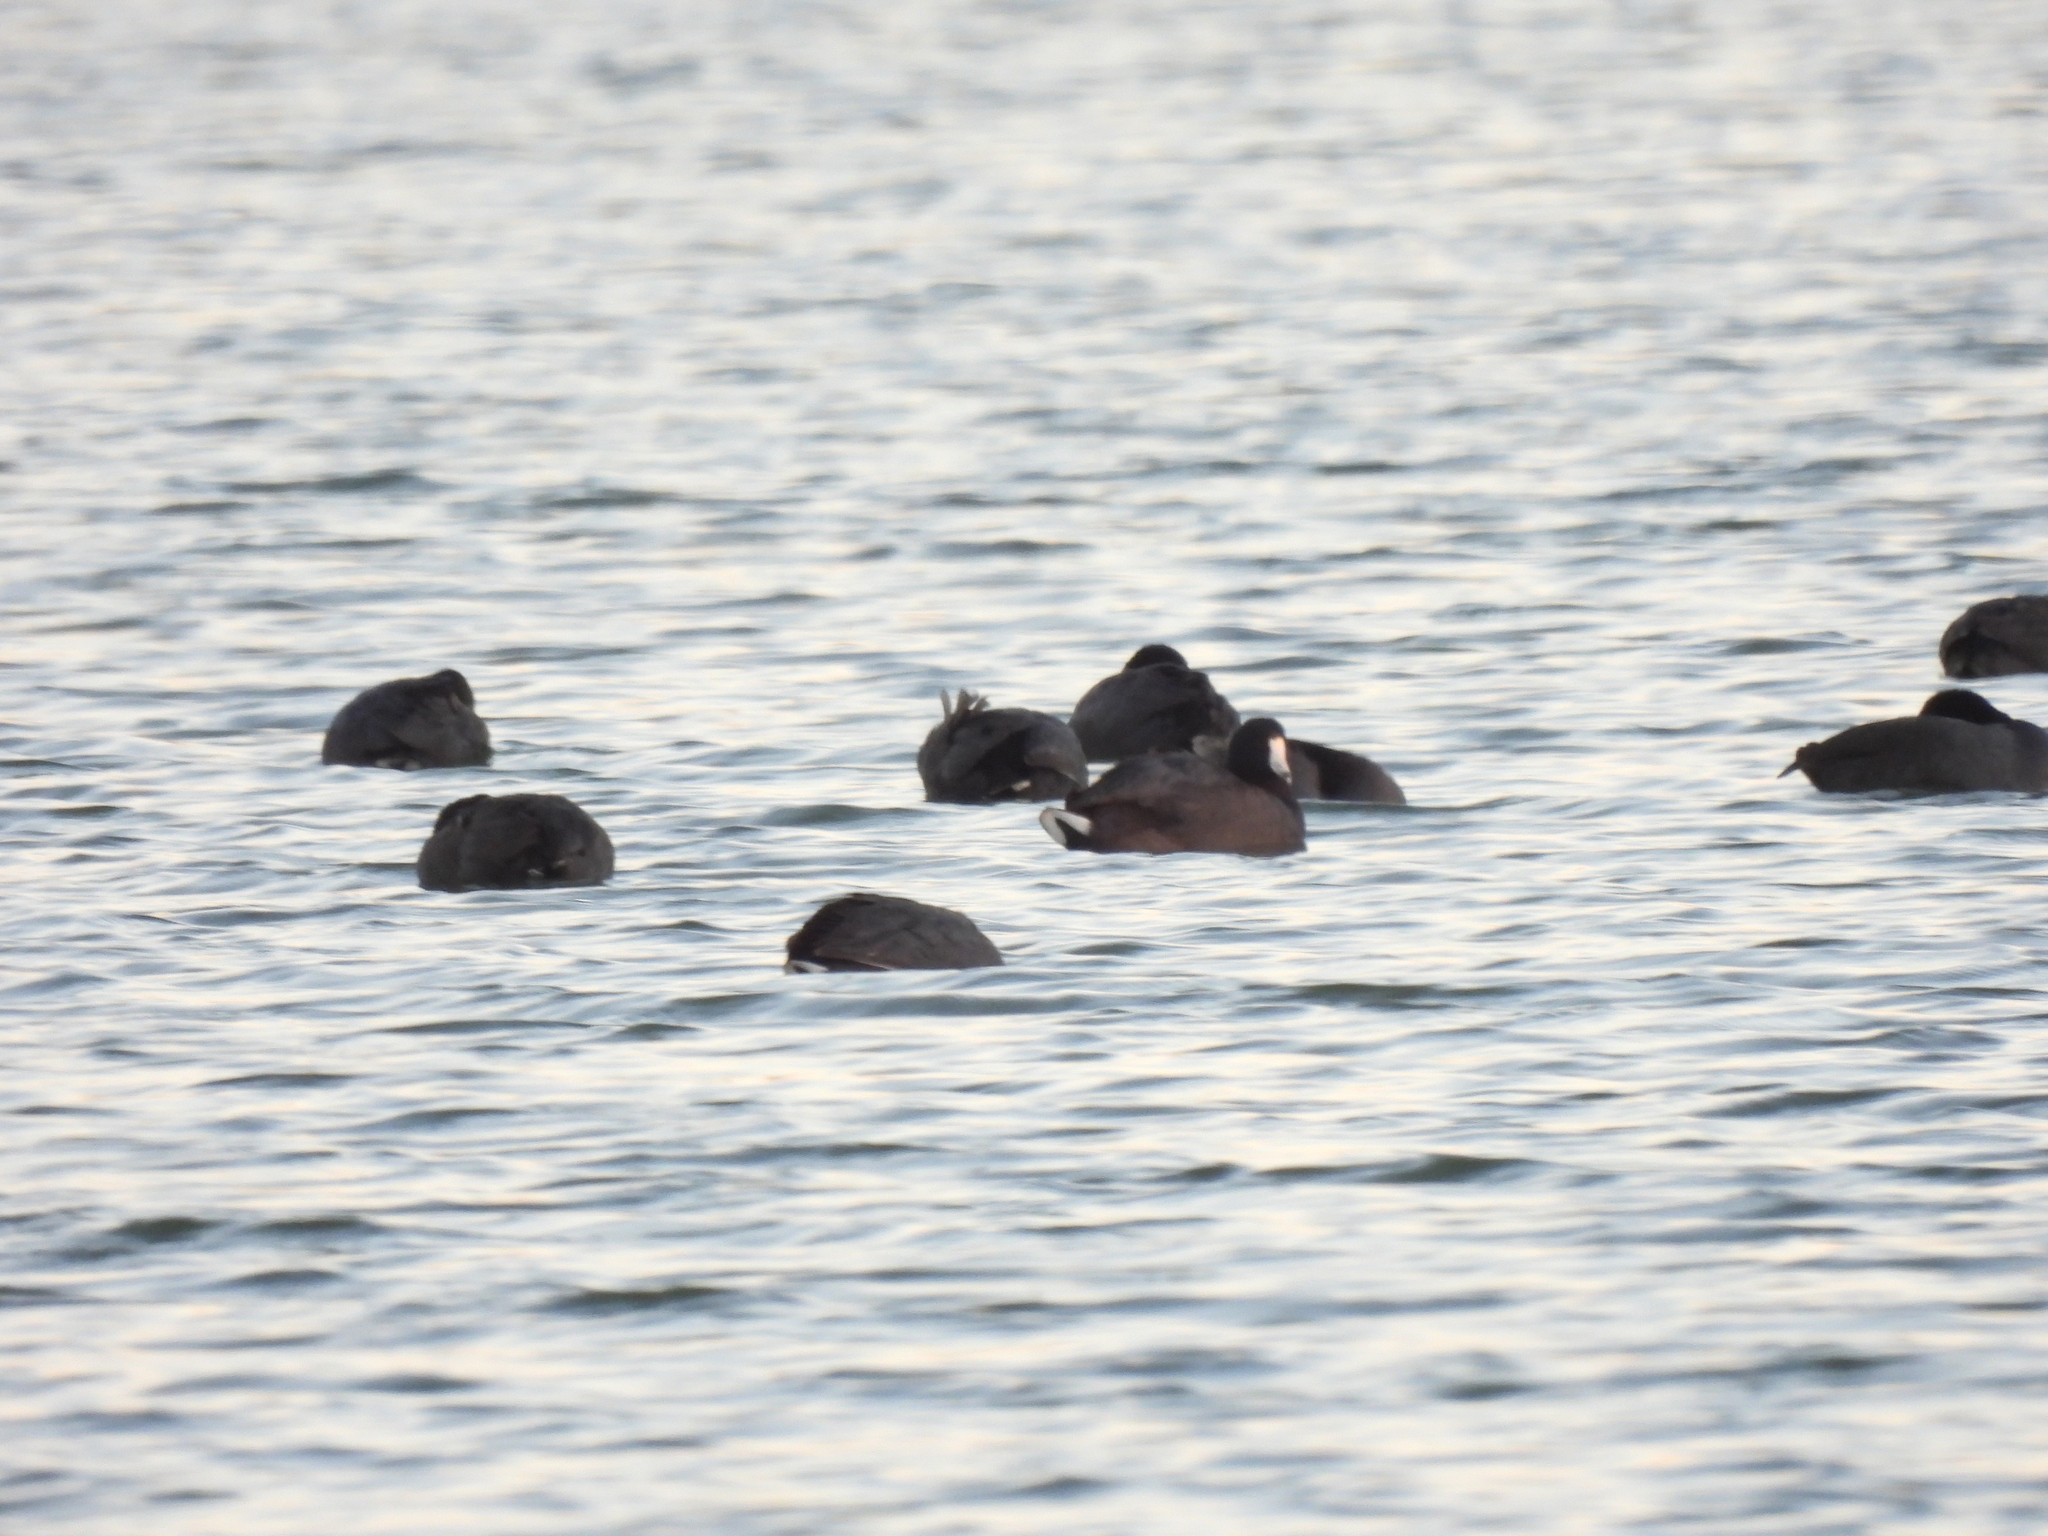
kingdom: Animalia
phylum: Chordata
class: Aves
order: Gruiformes
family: Rallidae
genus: Fulica
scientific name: Fulica americana
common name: American coot
